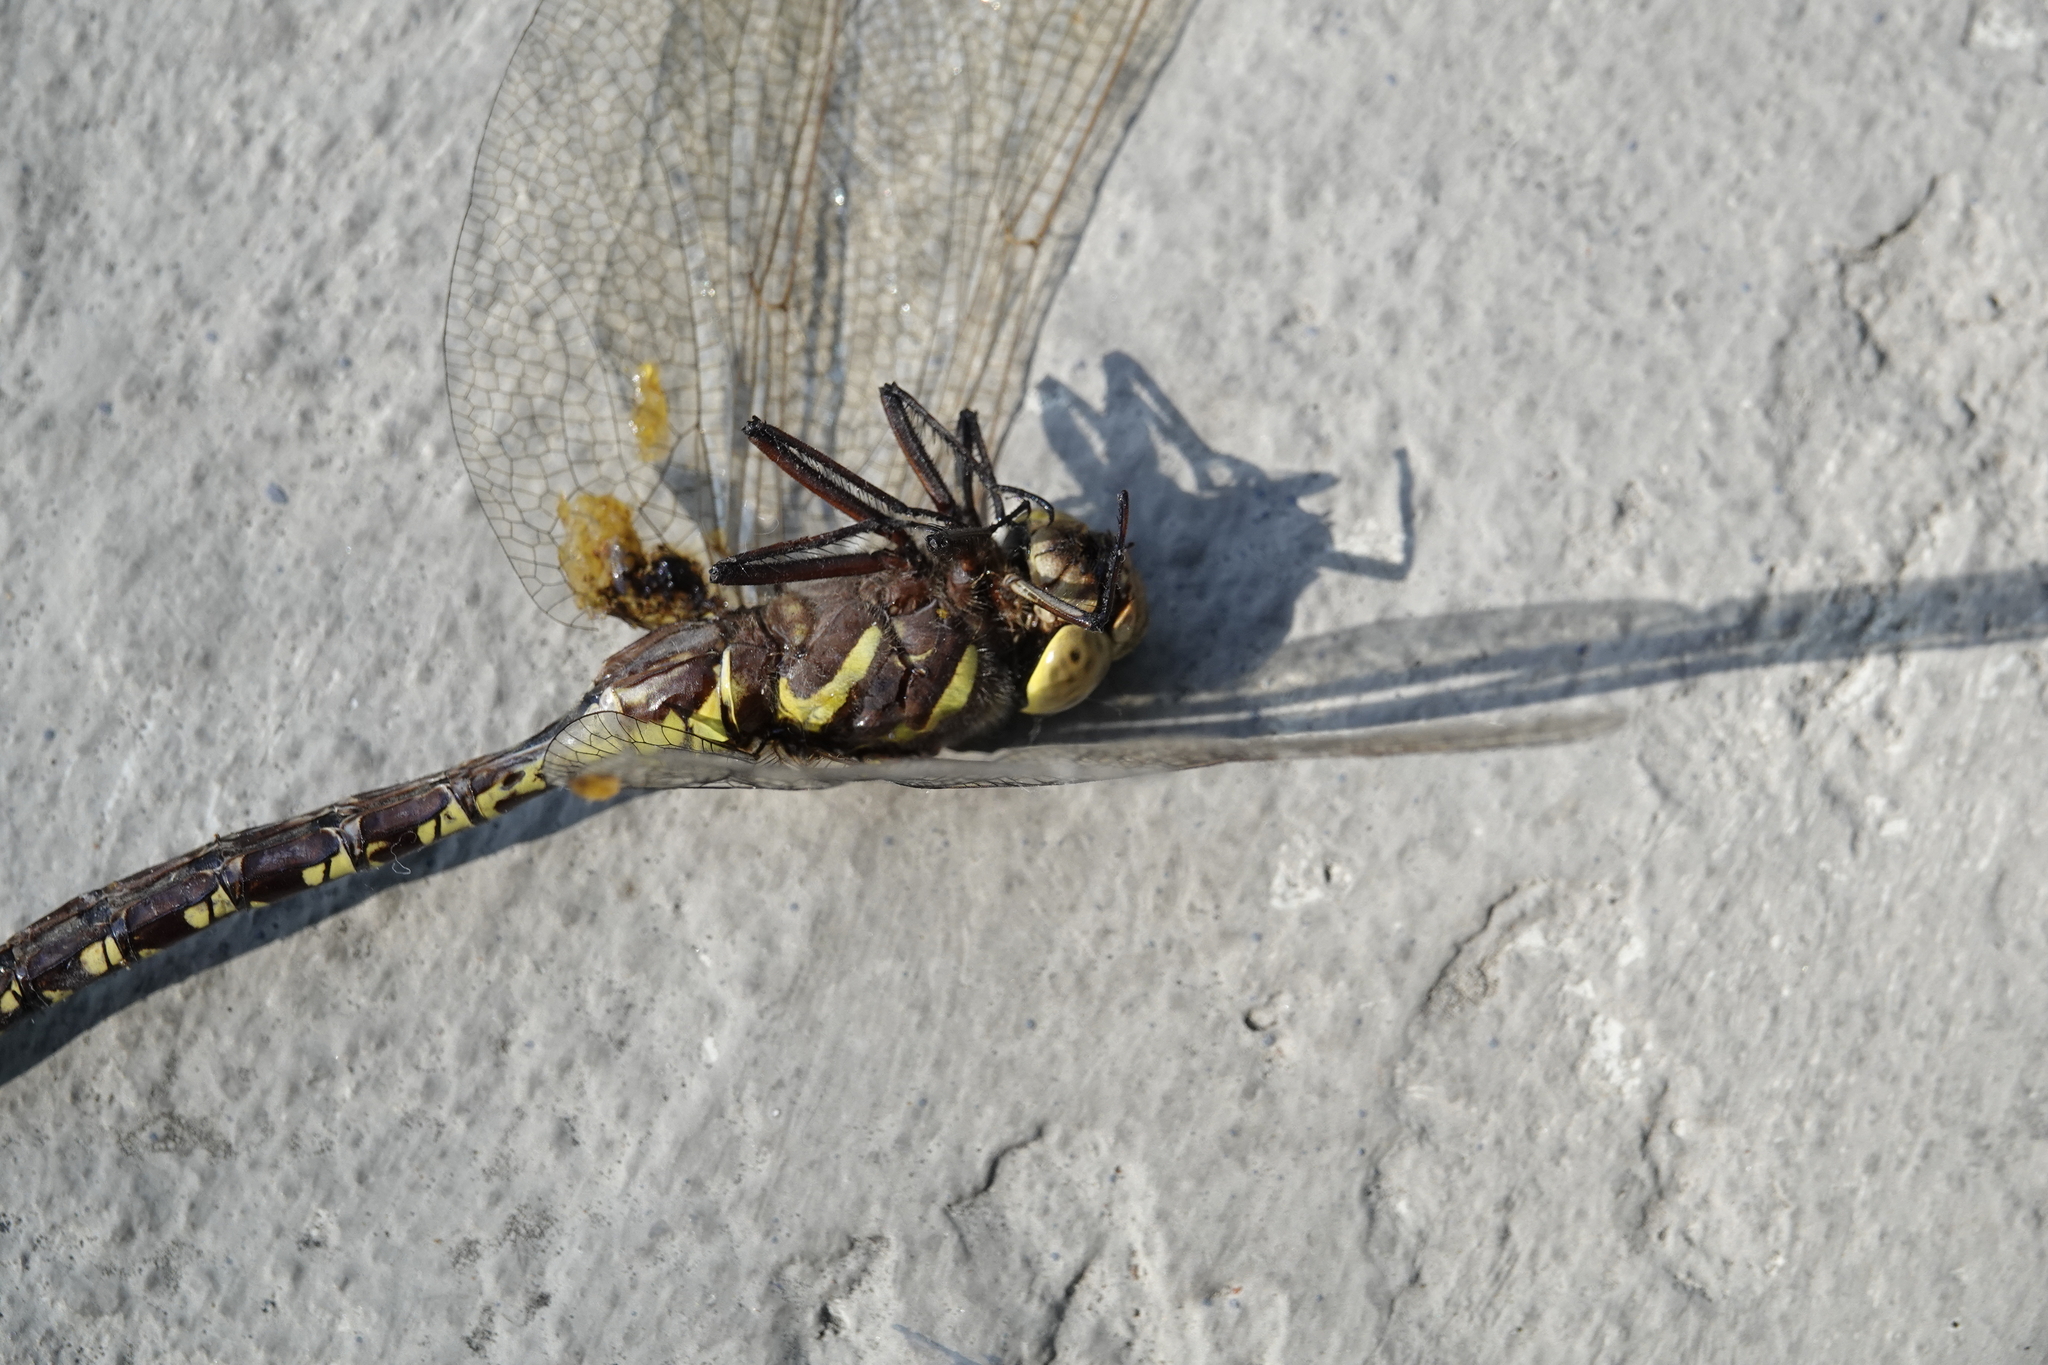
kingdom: Animalia
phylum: Arthropoda
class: Insecta
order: Odonata
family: Aeshnidae
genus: Aeshna
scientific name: Aeshna constricta
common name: Lance-tipped darner
